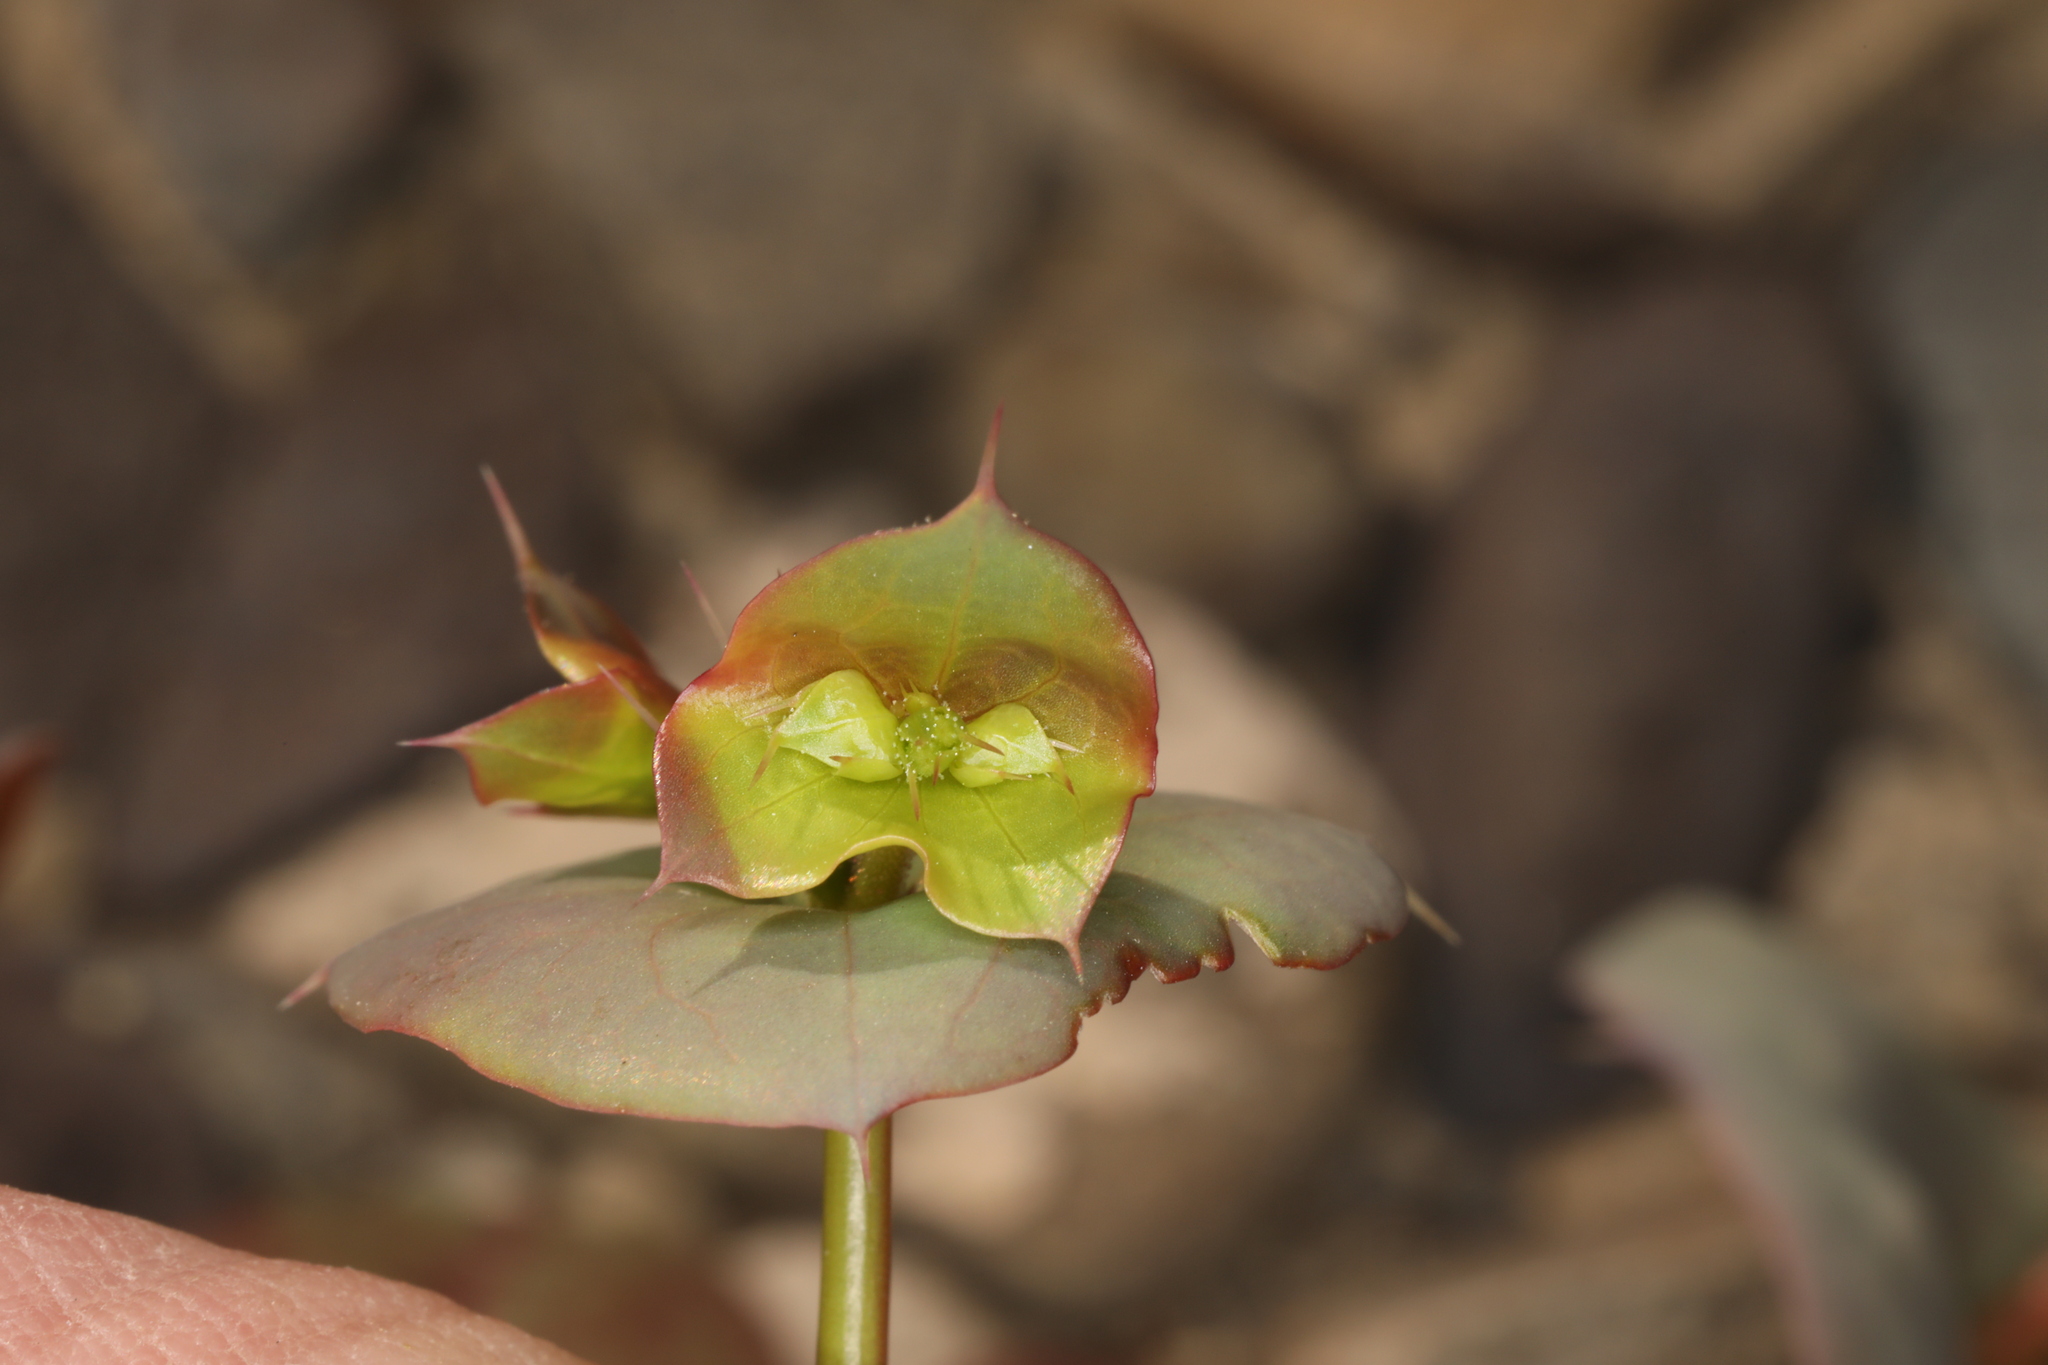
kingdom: Plantae
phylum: Tracheophyta
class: Magnoliopsida
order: Caryophyllales
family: Polygonaceae
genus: Oxytheca
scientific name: Oxytheca perfoliata
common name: Round-leaf puncturebract
